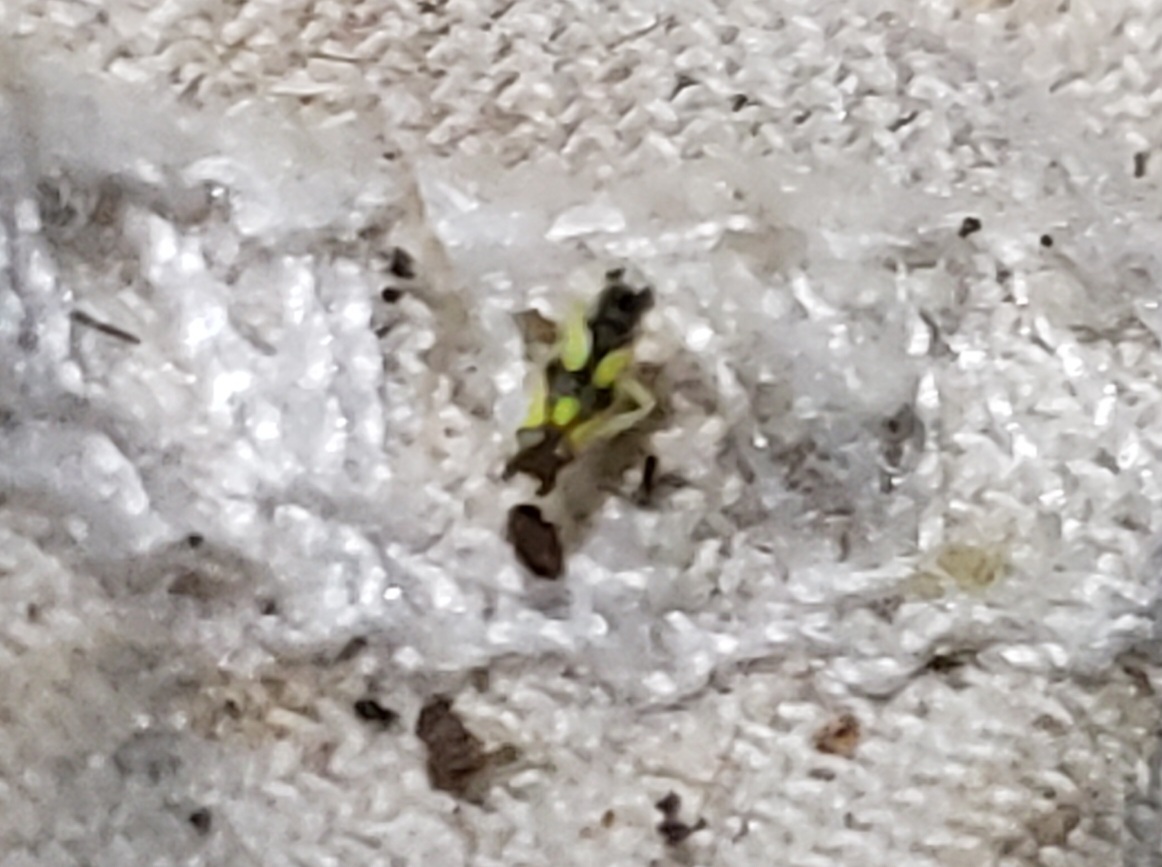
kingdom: Animalia
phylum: Arthropoda
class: Insecta
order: Hemiptera
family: Cicadellidae
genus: Protalebrella
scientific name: Protalebrella brasiliensis
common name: Brasilian leafhopper
